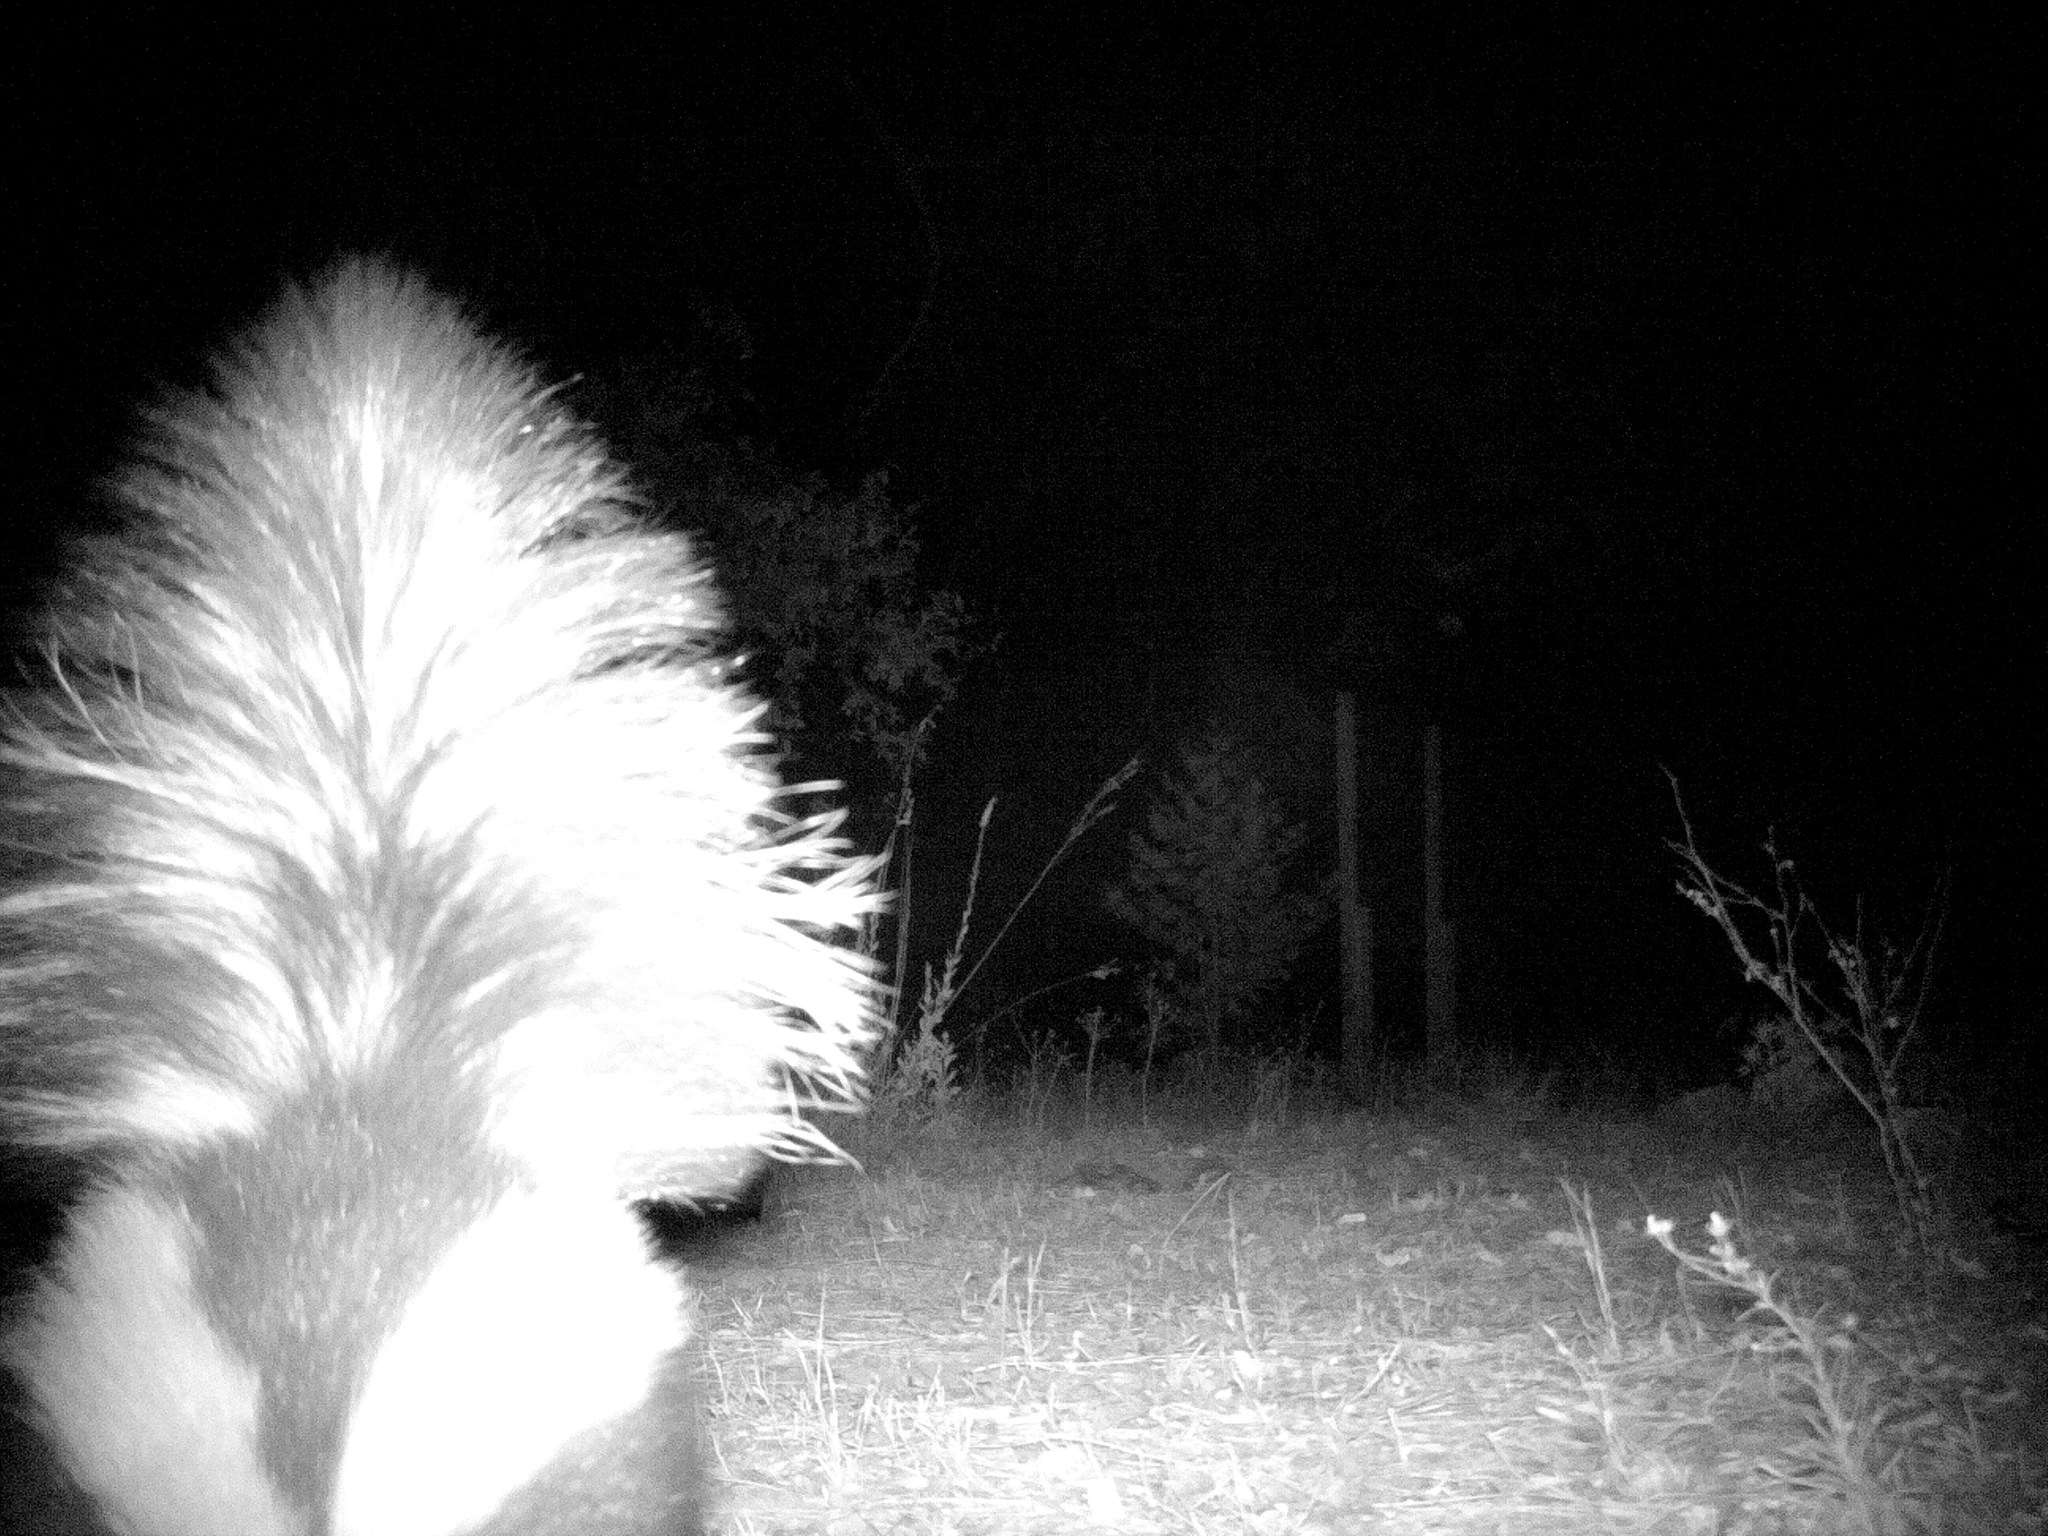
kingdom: Animalia
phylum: Chordata
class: Mammalia
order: Carnivora
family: Mephitidae
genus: Mephitis
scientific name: Mephitis mephitis
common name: Striped skunk
